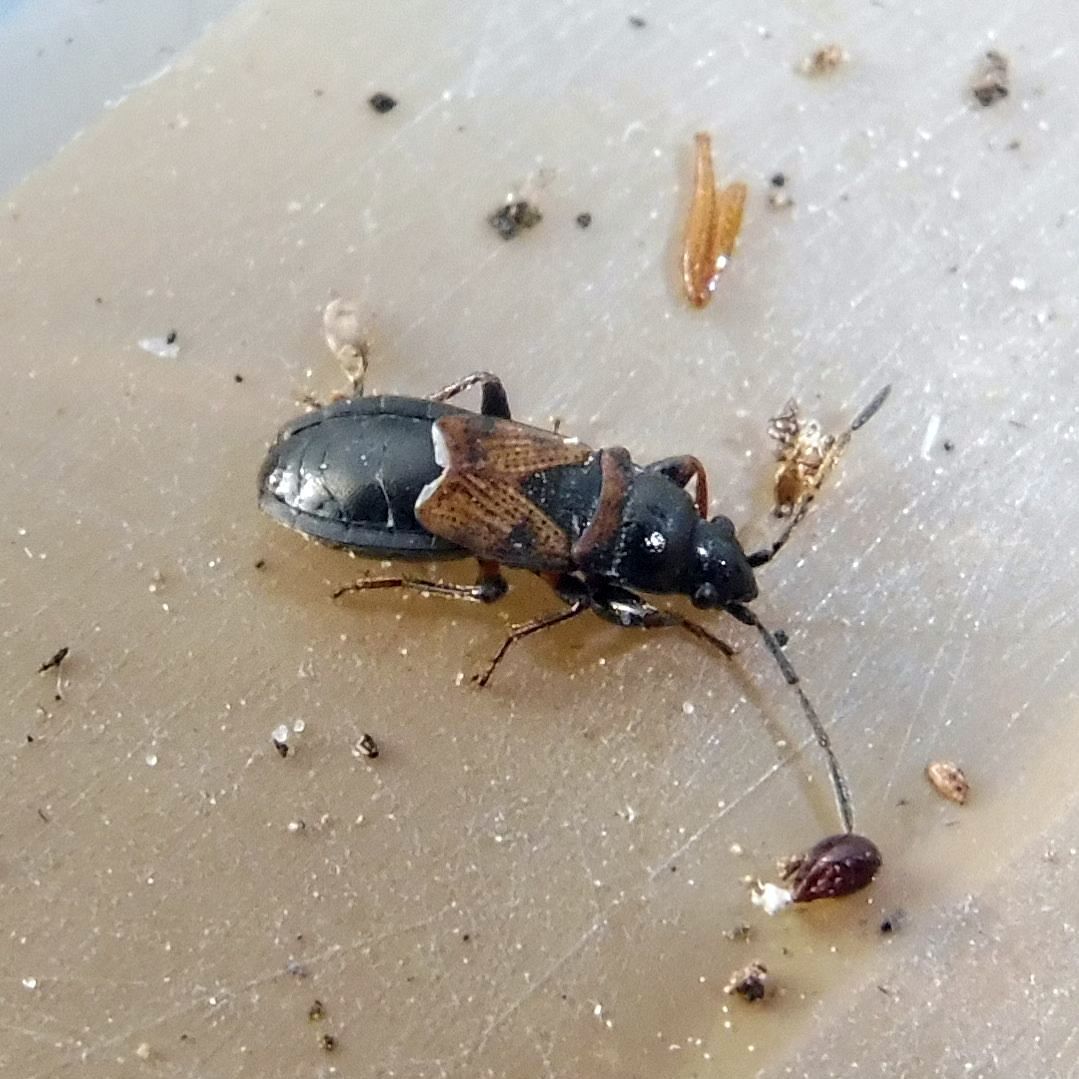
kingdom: Animalia
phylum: Arthropoda
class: Insecta
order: Hemiptera
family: Rhyparochromidae
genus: Macrodema
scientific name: Macrodema microptera
